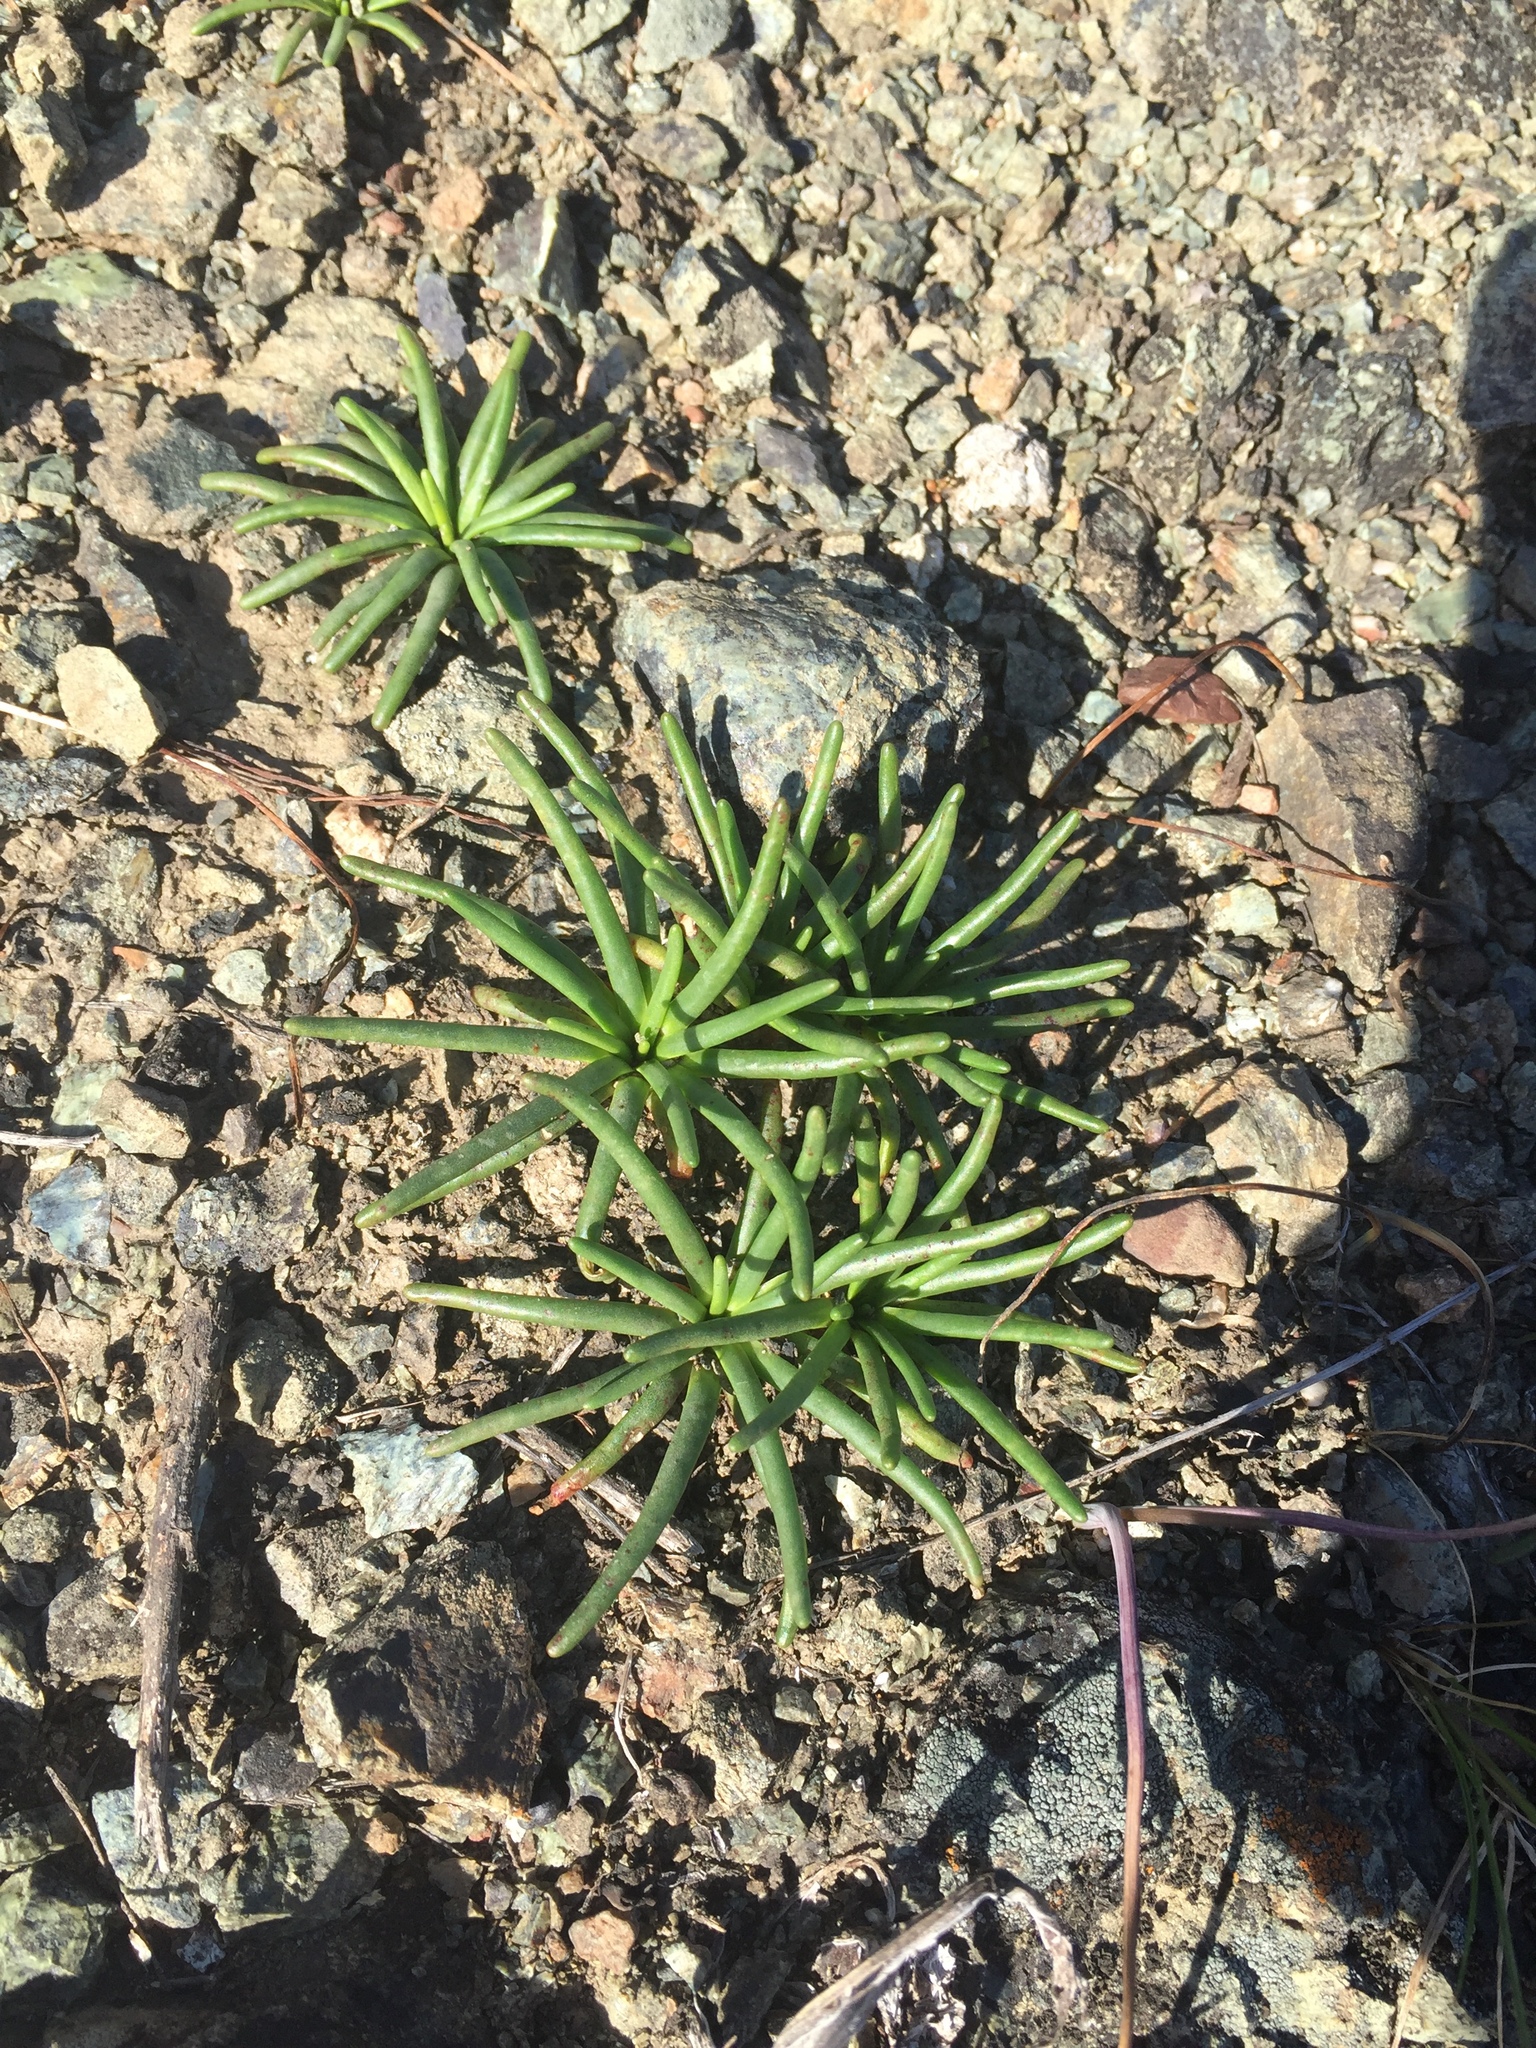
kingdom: Plantae
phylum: Tracheophyta
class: Magnoliopsida
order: Caryophyllales
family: Montiaceae
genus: Lewisia
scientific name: Lewisia rediviva
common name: Bitter-root
